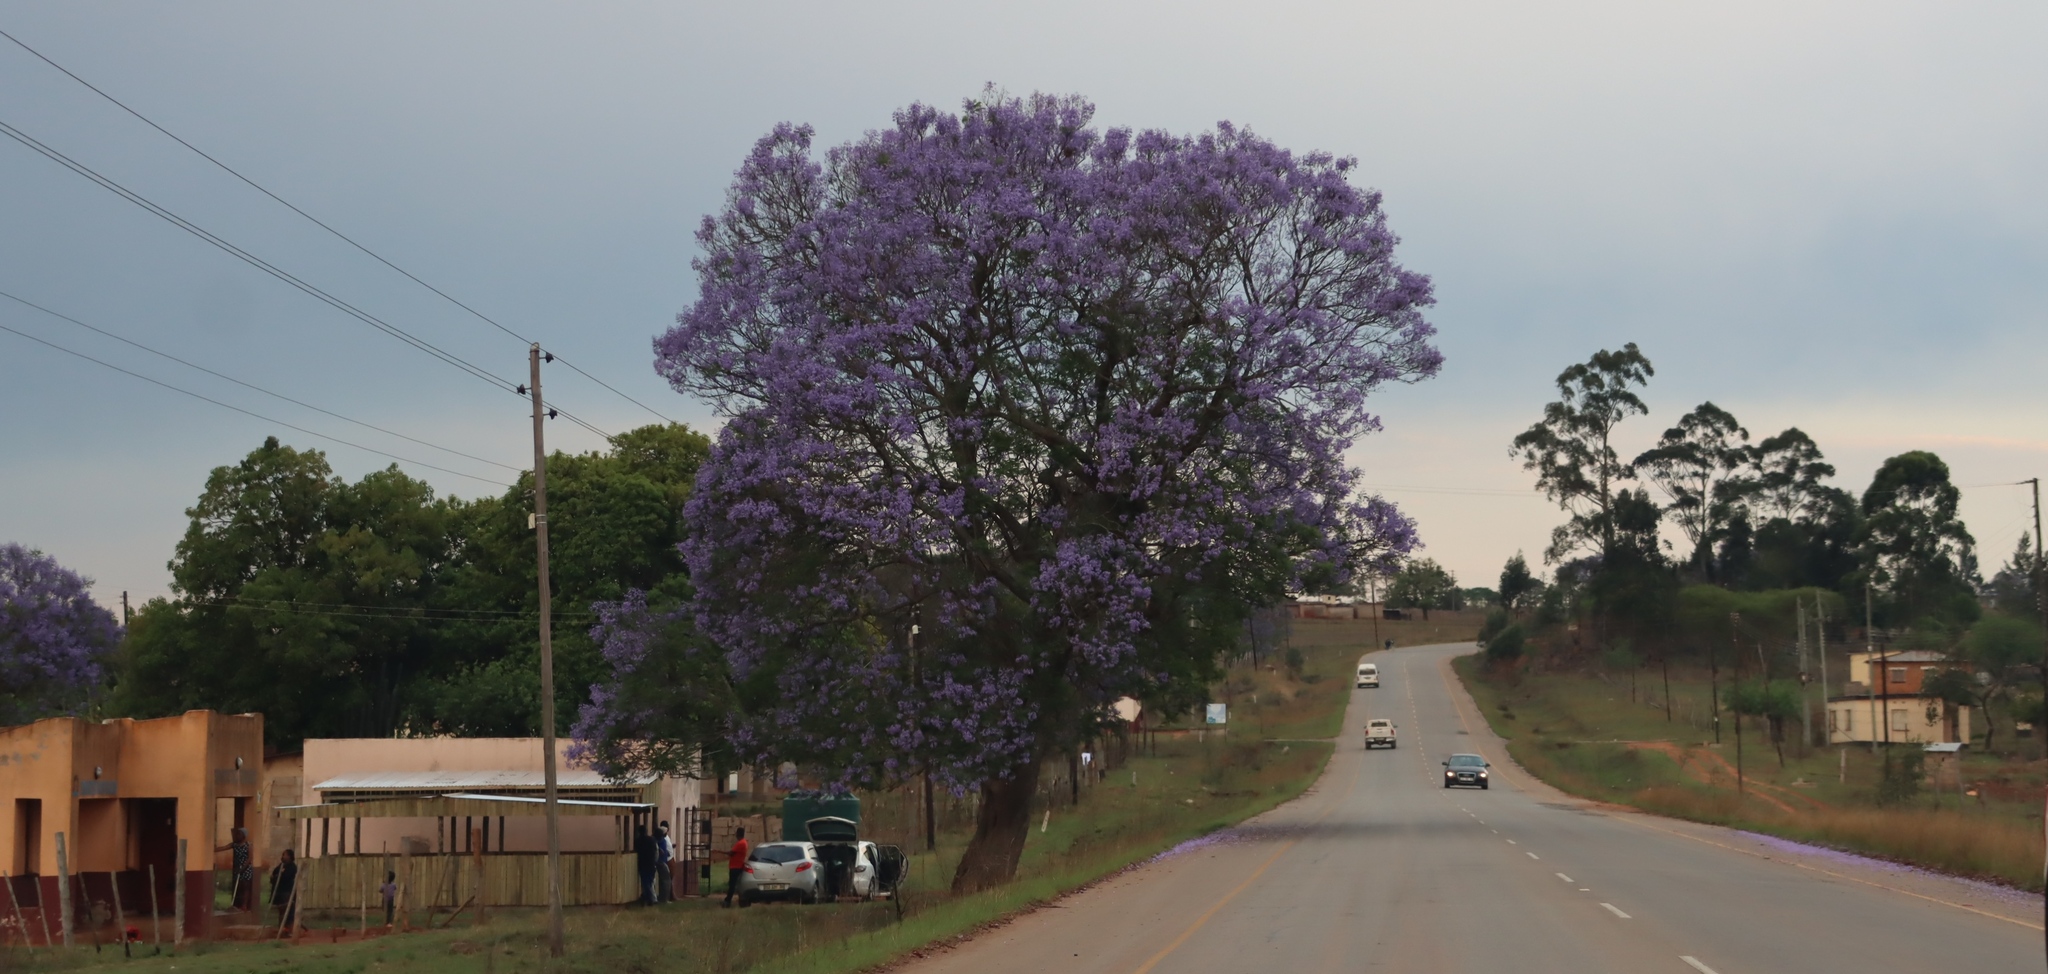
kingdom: Plantae
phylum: Tracheophyta
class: Magnoliopsida
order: Lamiales
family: Bignoniaceae
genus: Jacaranda
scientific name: Jacaranda mimosifolia
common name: Black poui
